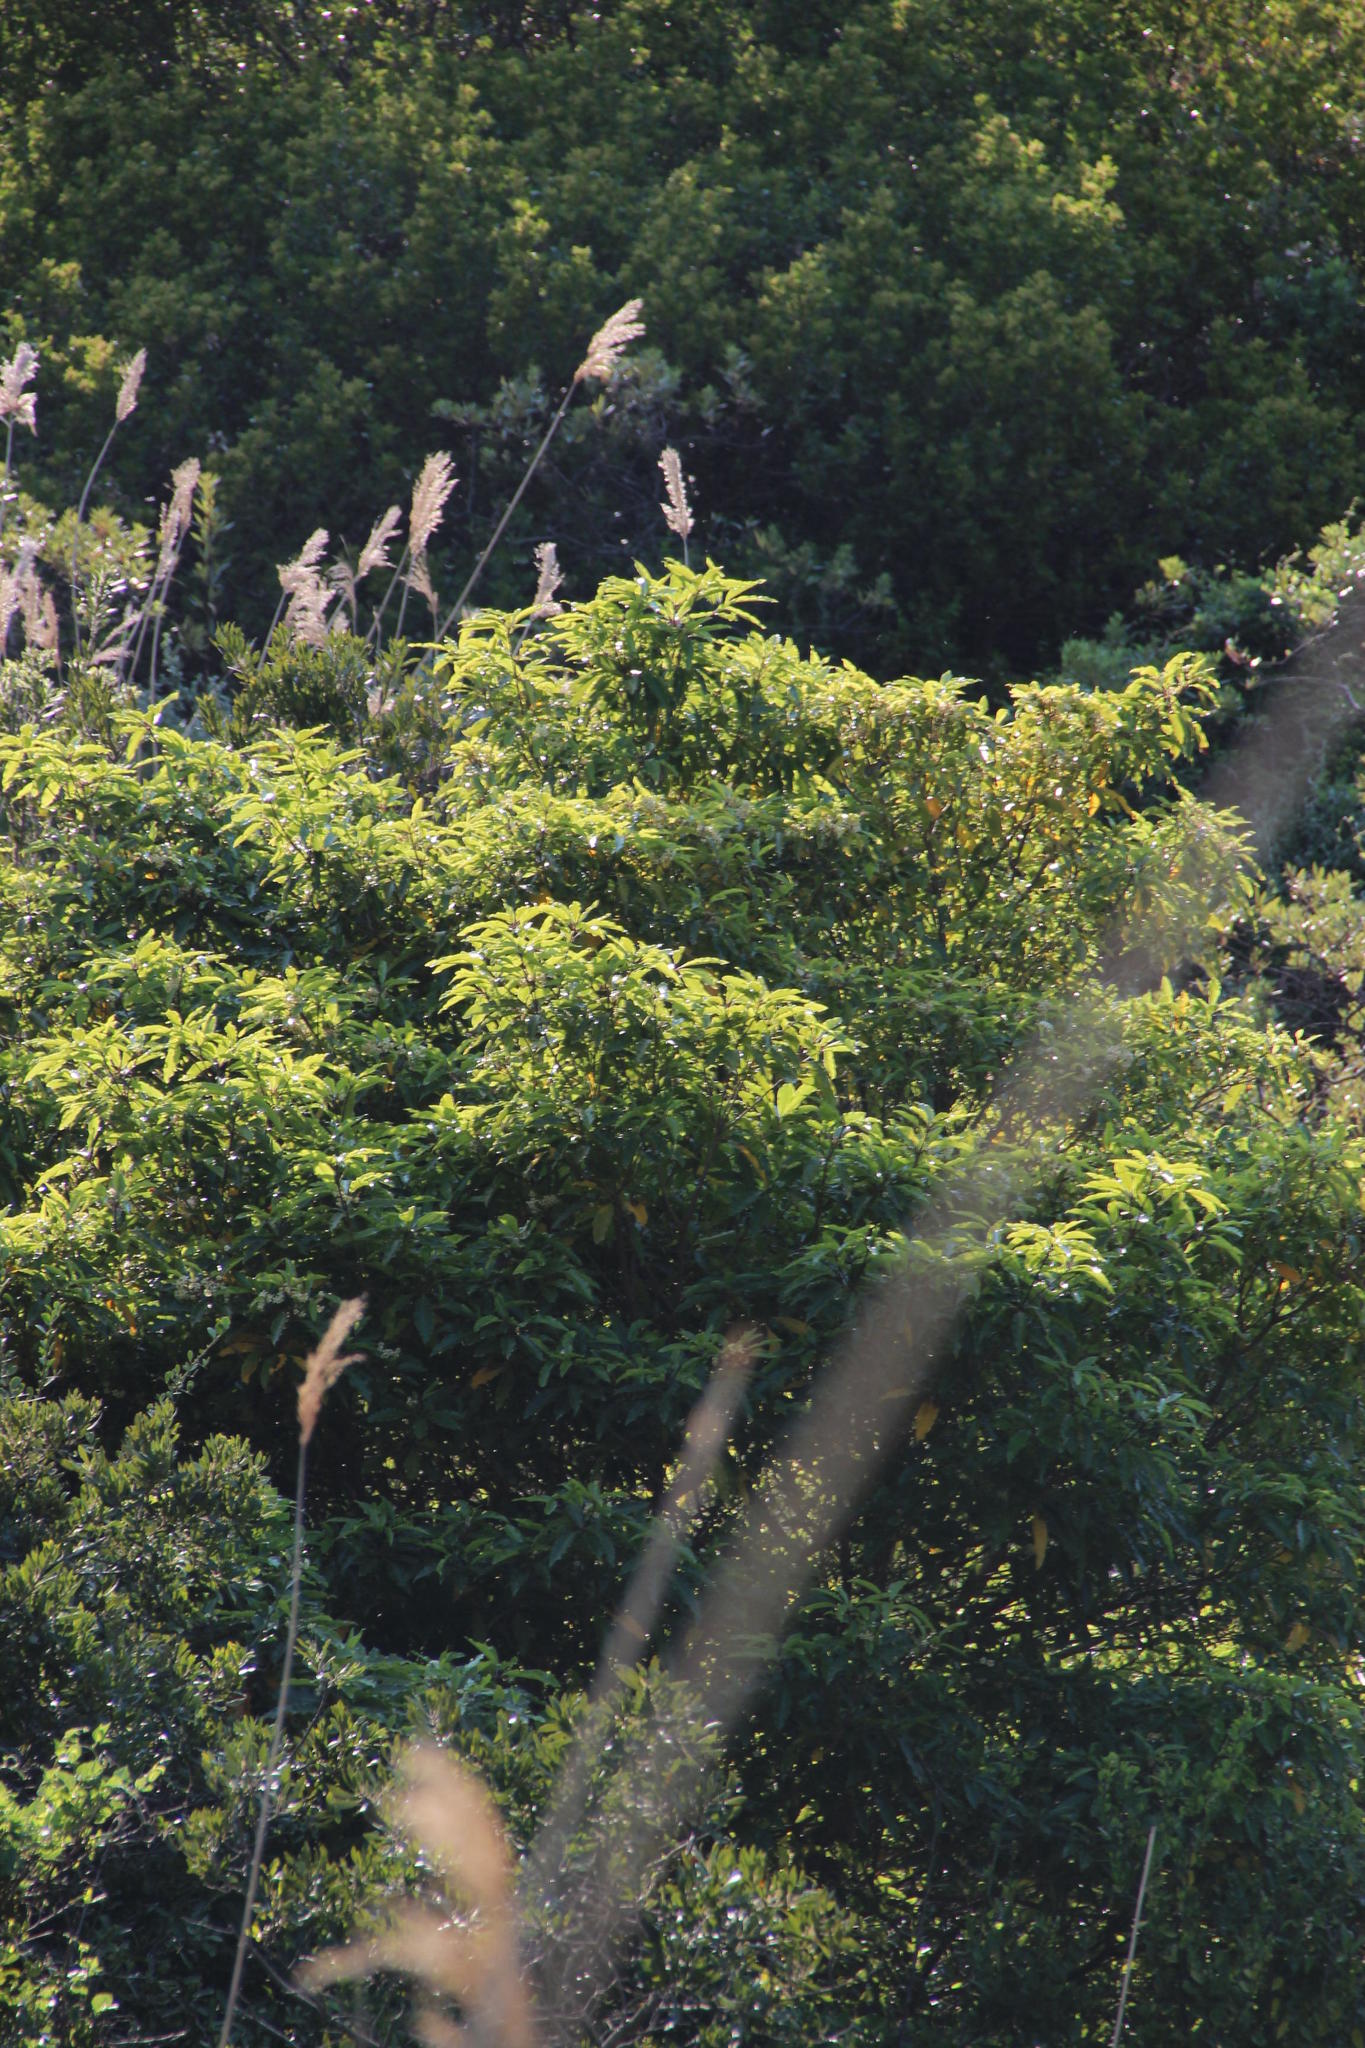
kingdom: Plantae
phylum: Tracheophyta
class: Magnoliopsida
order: Apiales
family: Pittosporaceae
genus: Pittosporum
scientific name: Pittosporum undulatum
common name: Australian cheesewood
